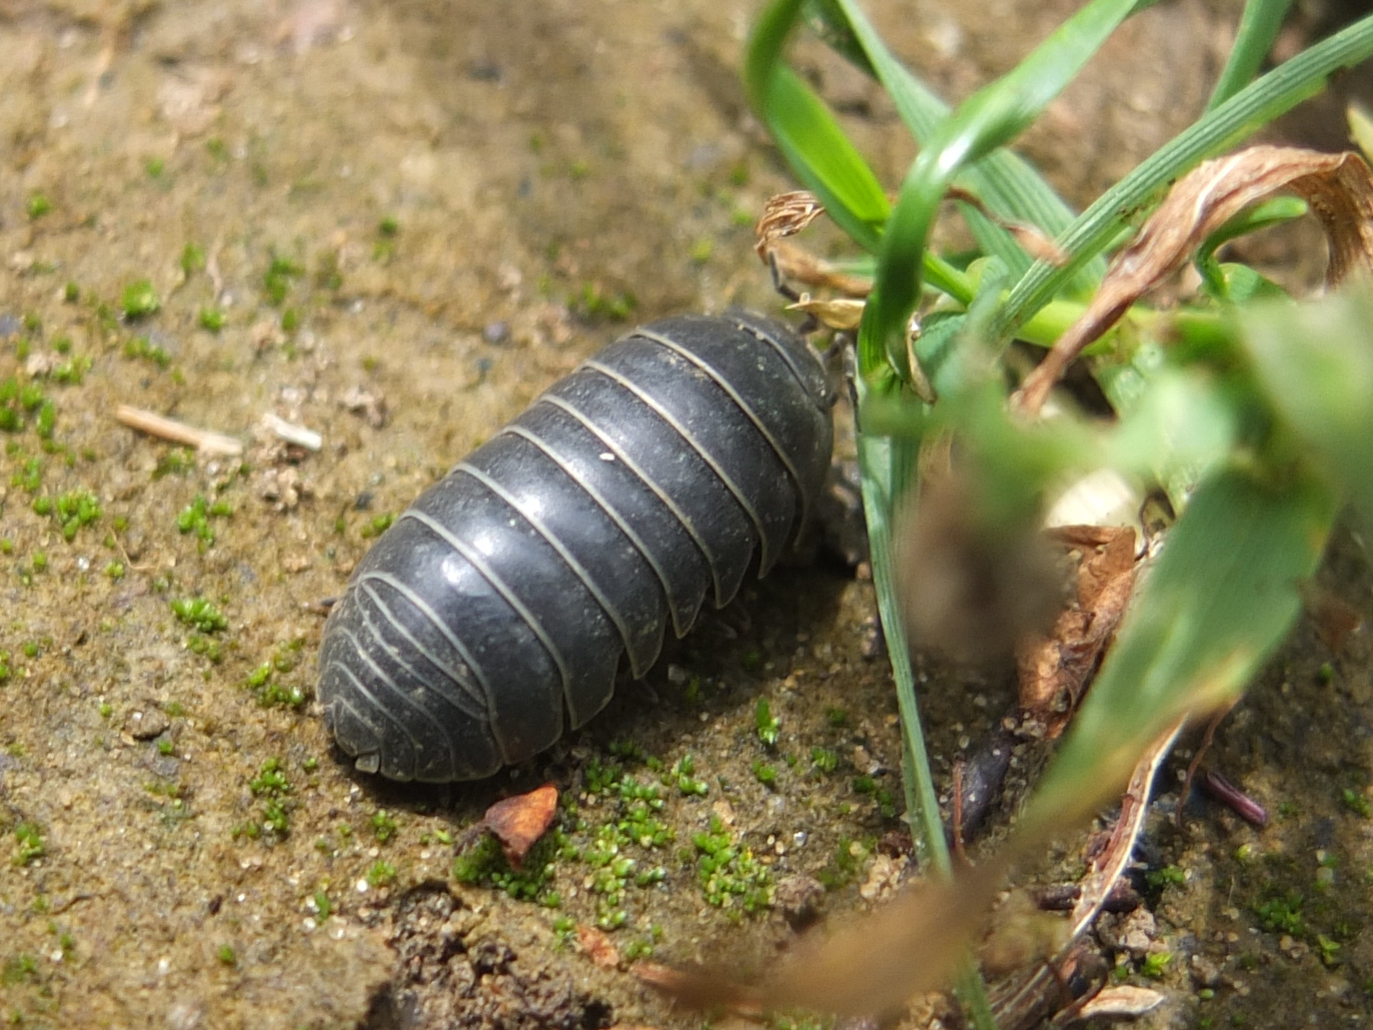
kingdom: Animalia
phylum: Arthropoda
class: Malacostraca
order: Isopoda
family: Armadillidiidae
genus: Armadillidium
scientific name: Armadillidium vulgare
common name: Common pill woodlouse
